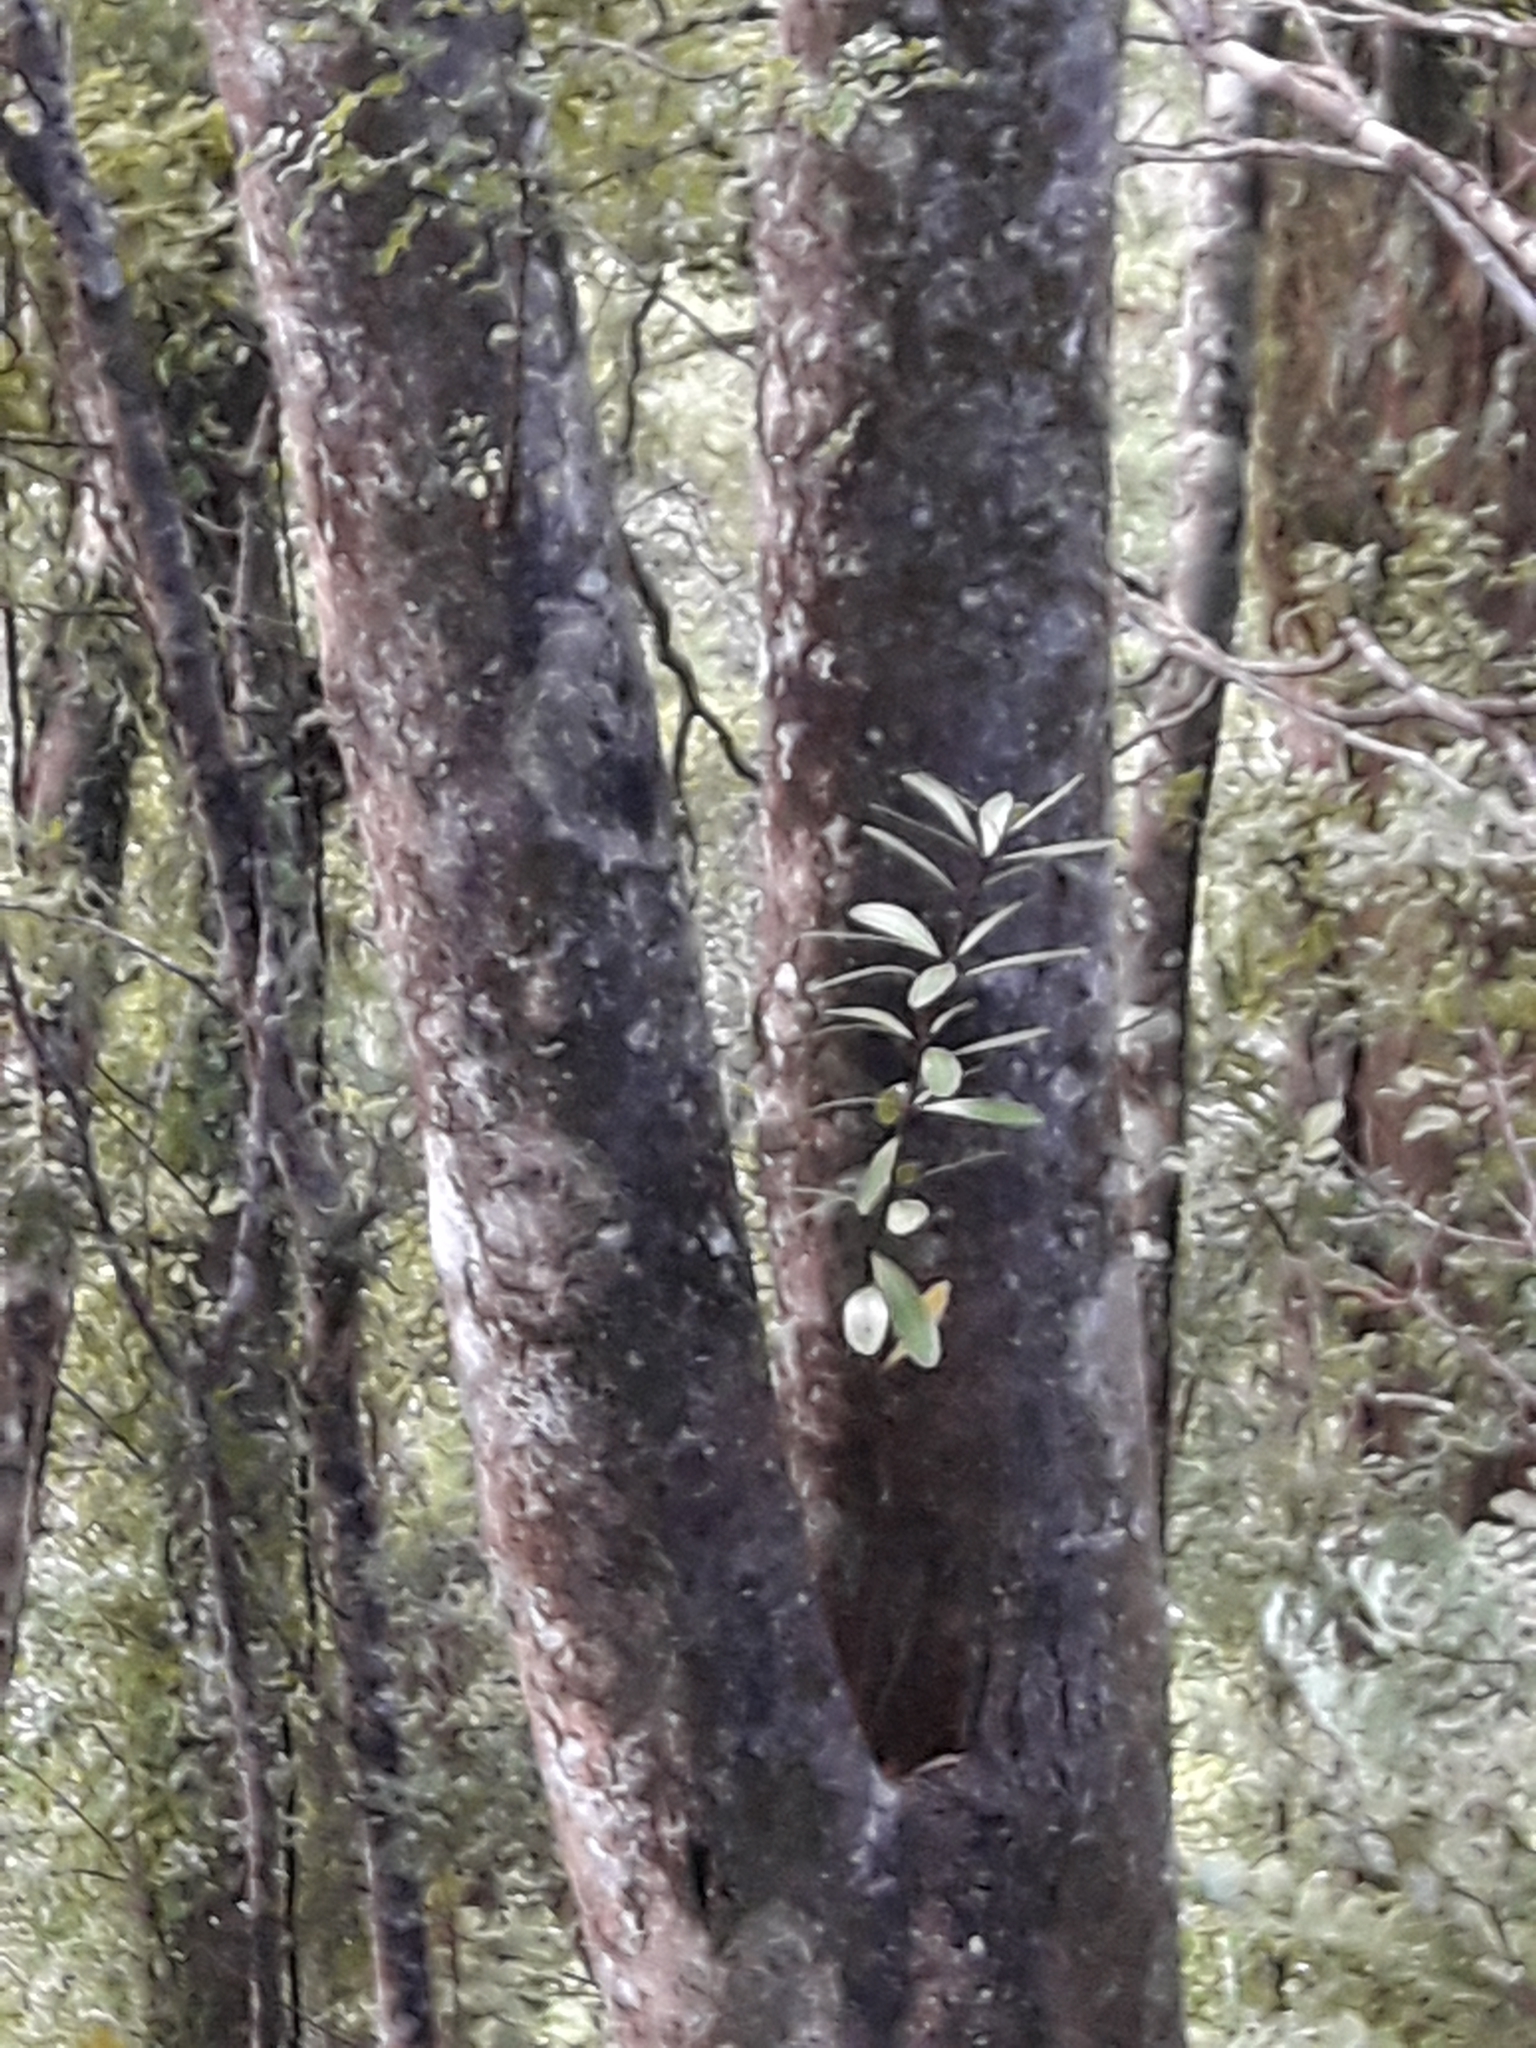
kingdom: Plantae
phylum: Tracheophyta
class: Magnoliopsida
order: Apiales
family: Pittosporaceae
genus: Pittosporum
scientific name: Pittosporum kirkii
